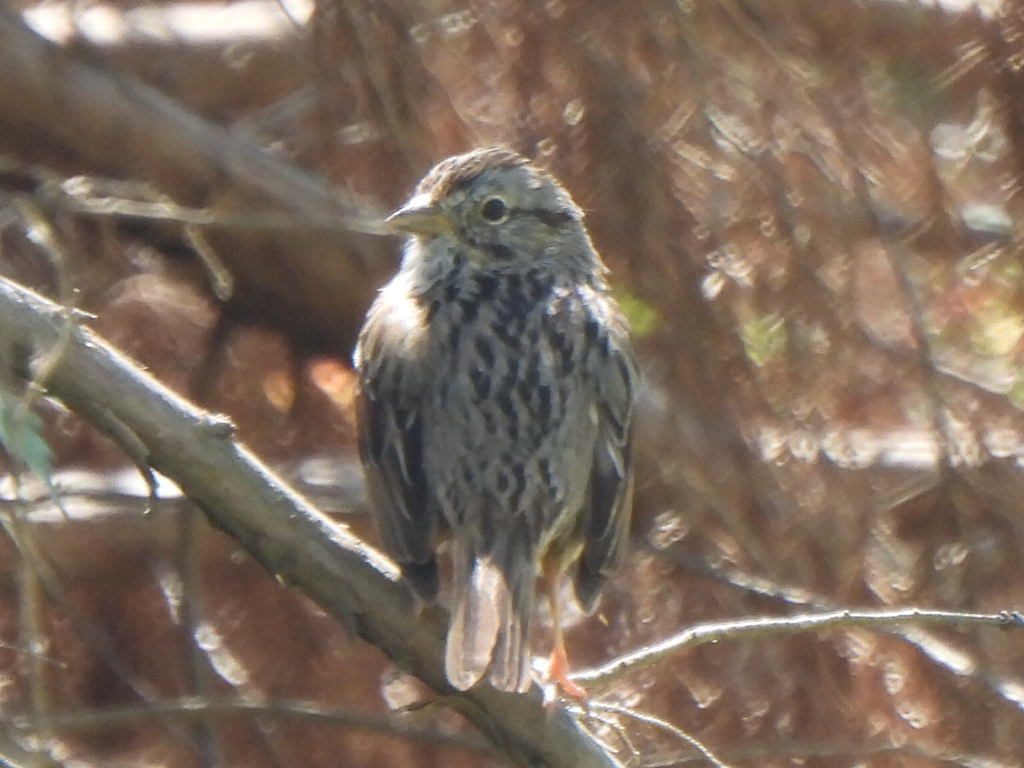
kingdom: Animalia
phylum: Chordata
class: Aves
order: Passeriformes
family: Passerellidae
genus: Melospiza
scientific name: Melospiza lincolnii
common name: Lincoln's sparrow
